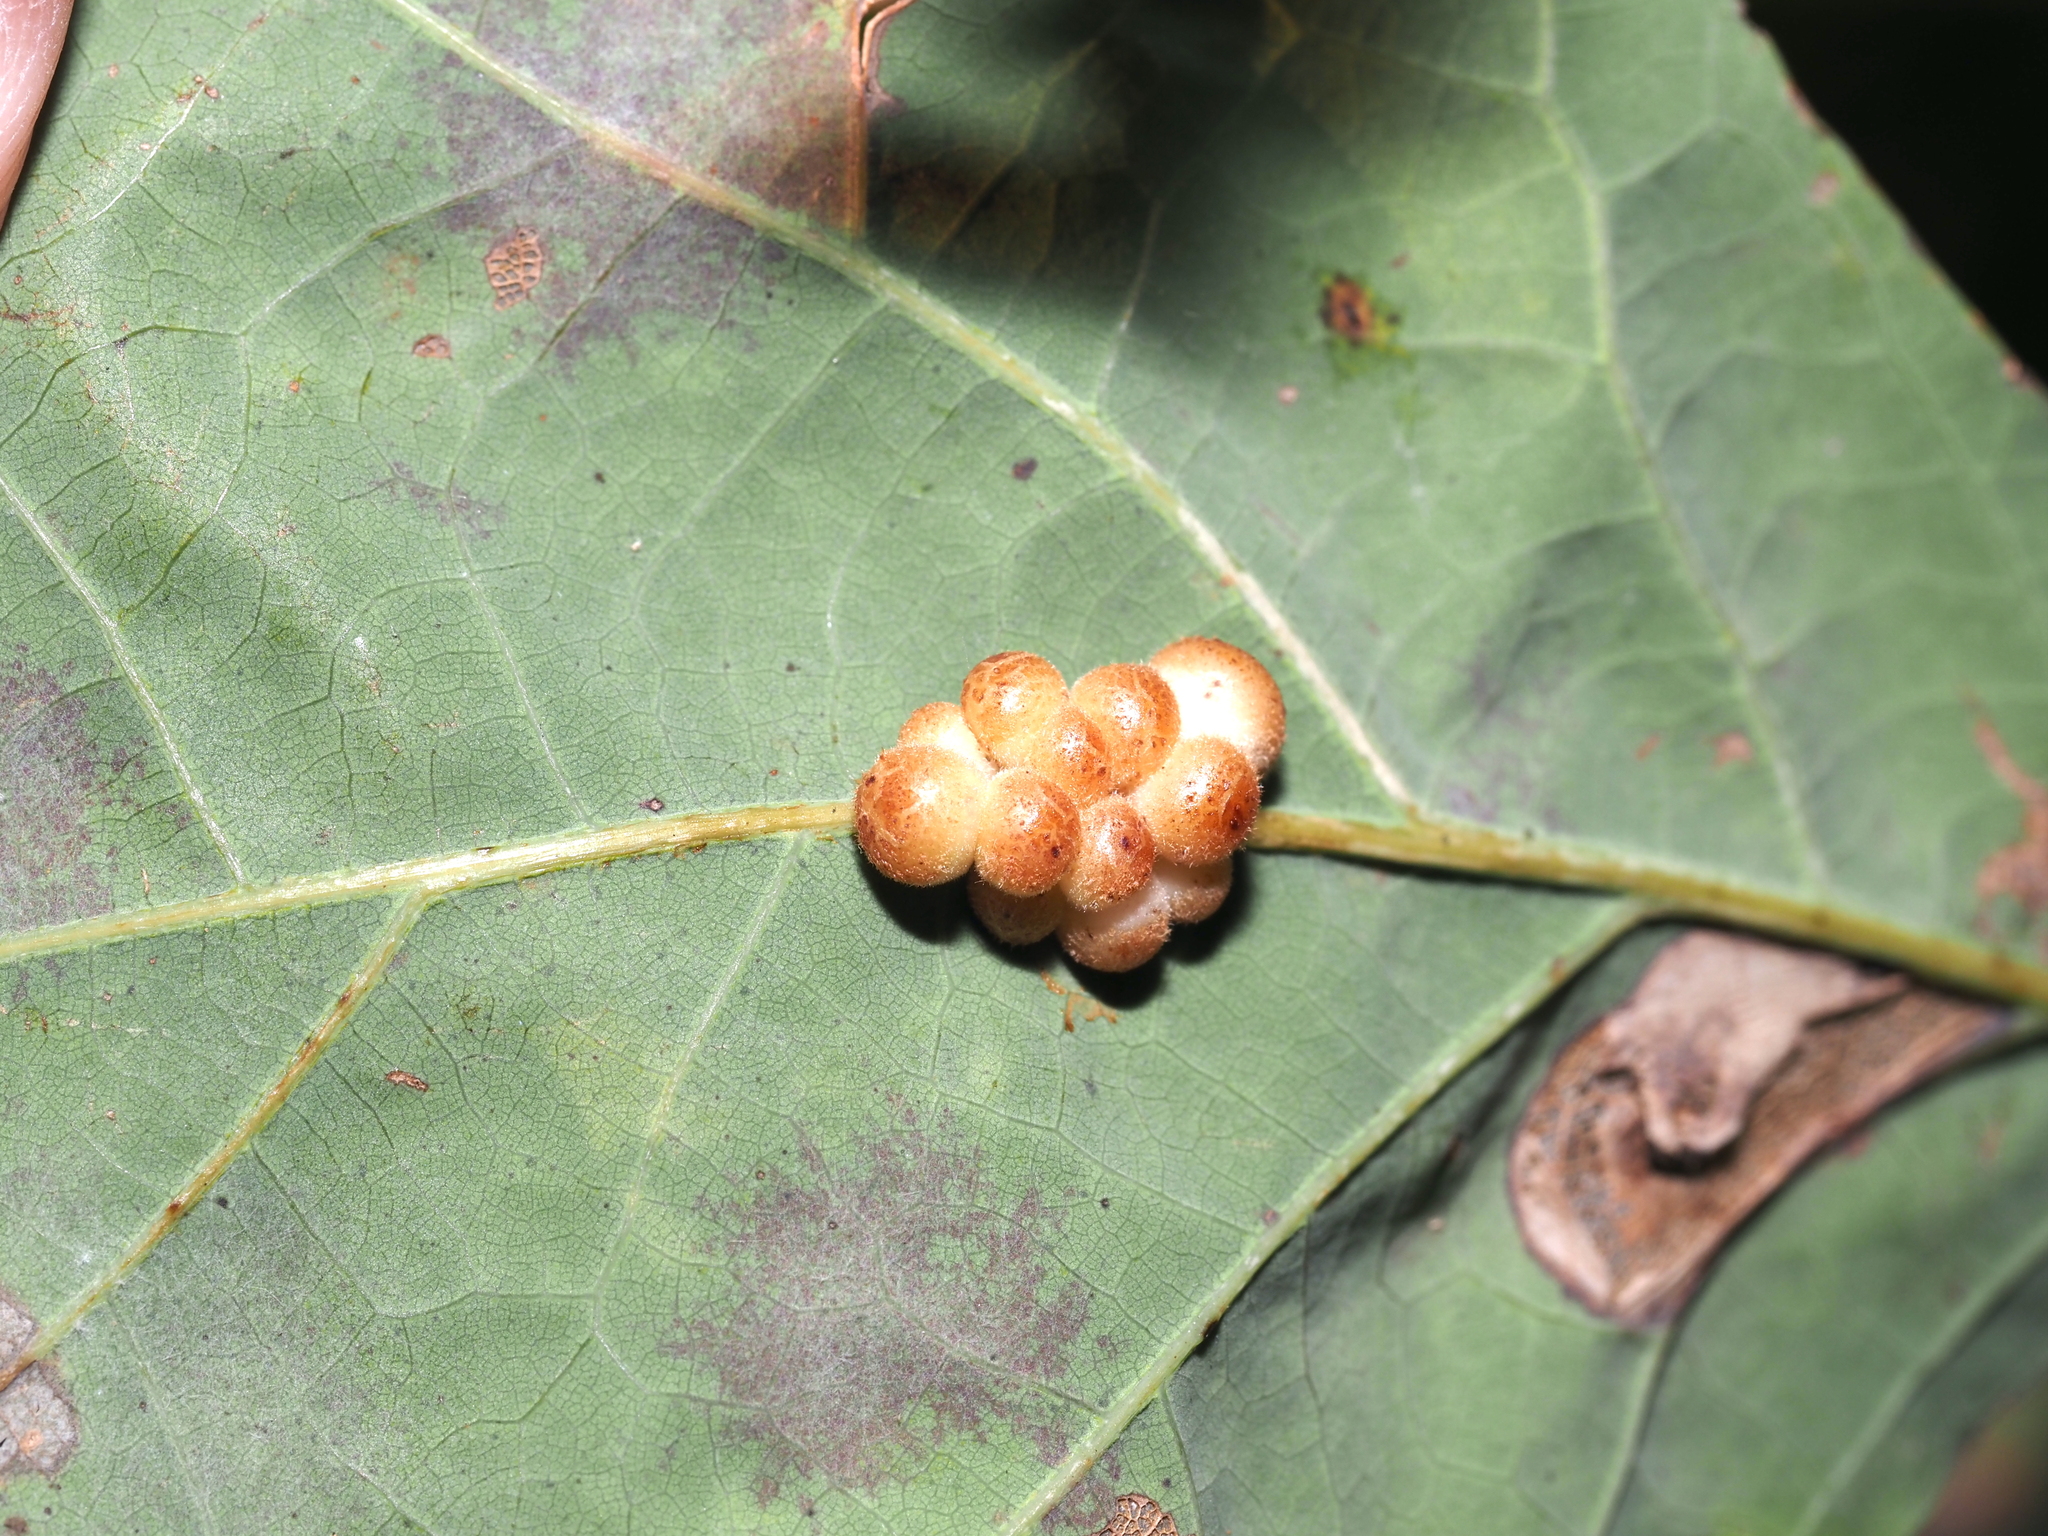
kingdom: Animalia
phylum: Arthropoda
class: Insecta
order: Hymenoptera
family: Cynipidae
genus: Andricus
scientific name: Andricus
